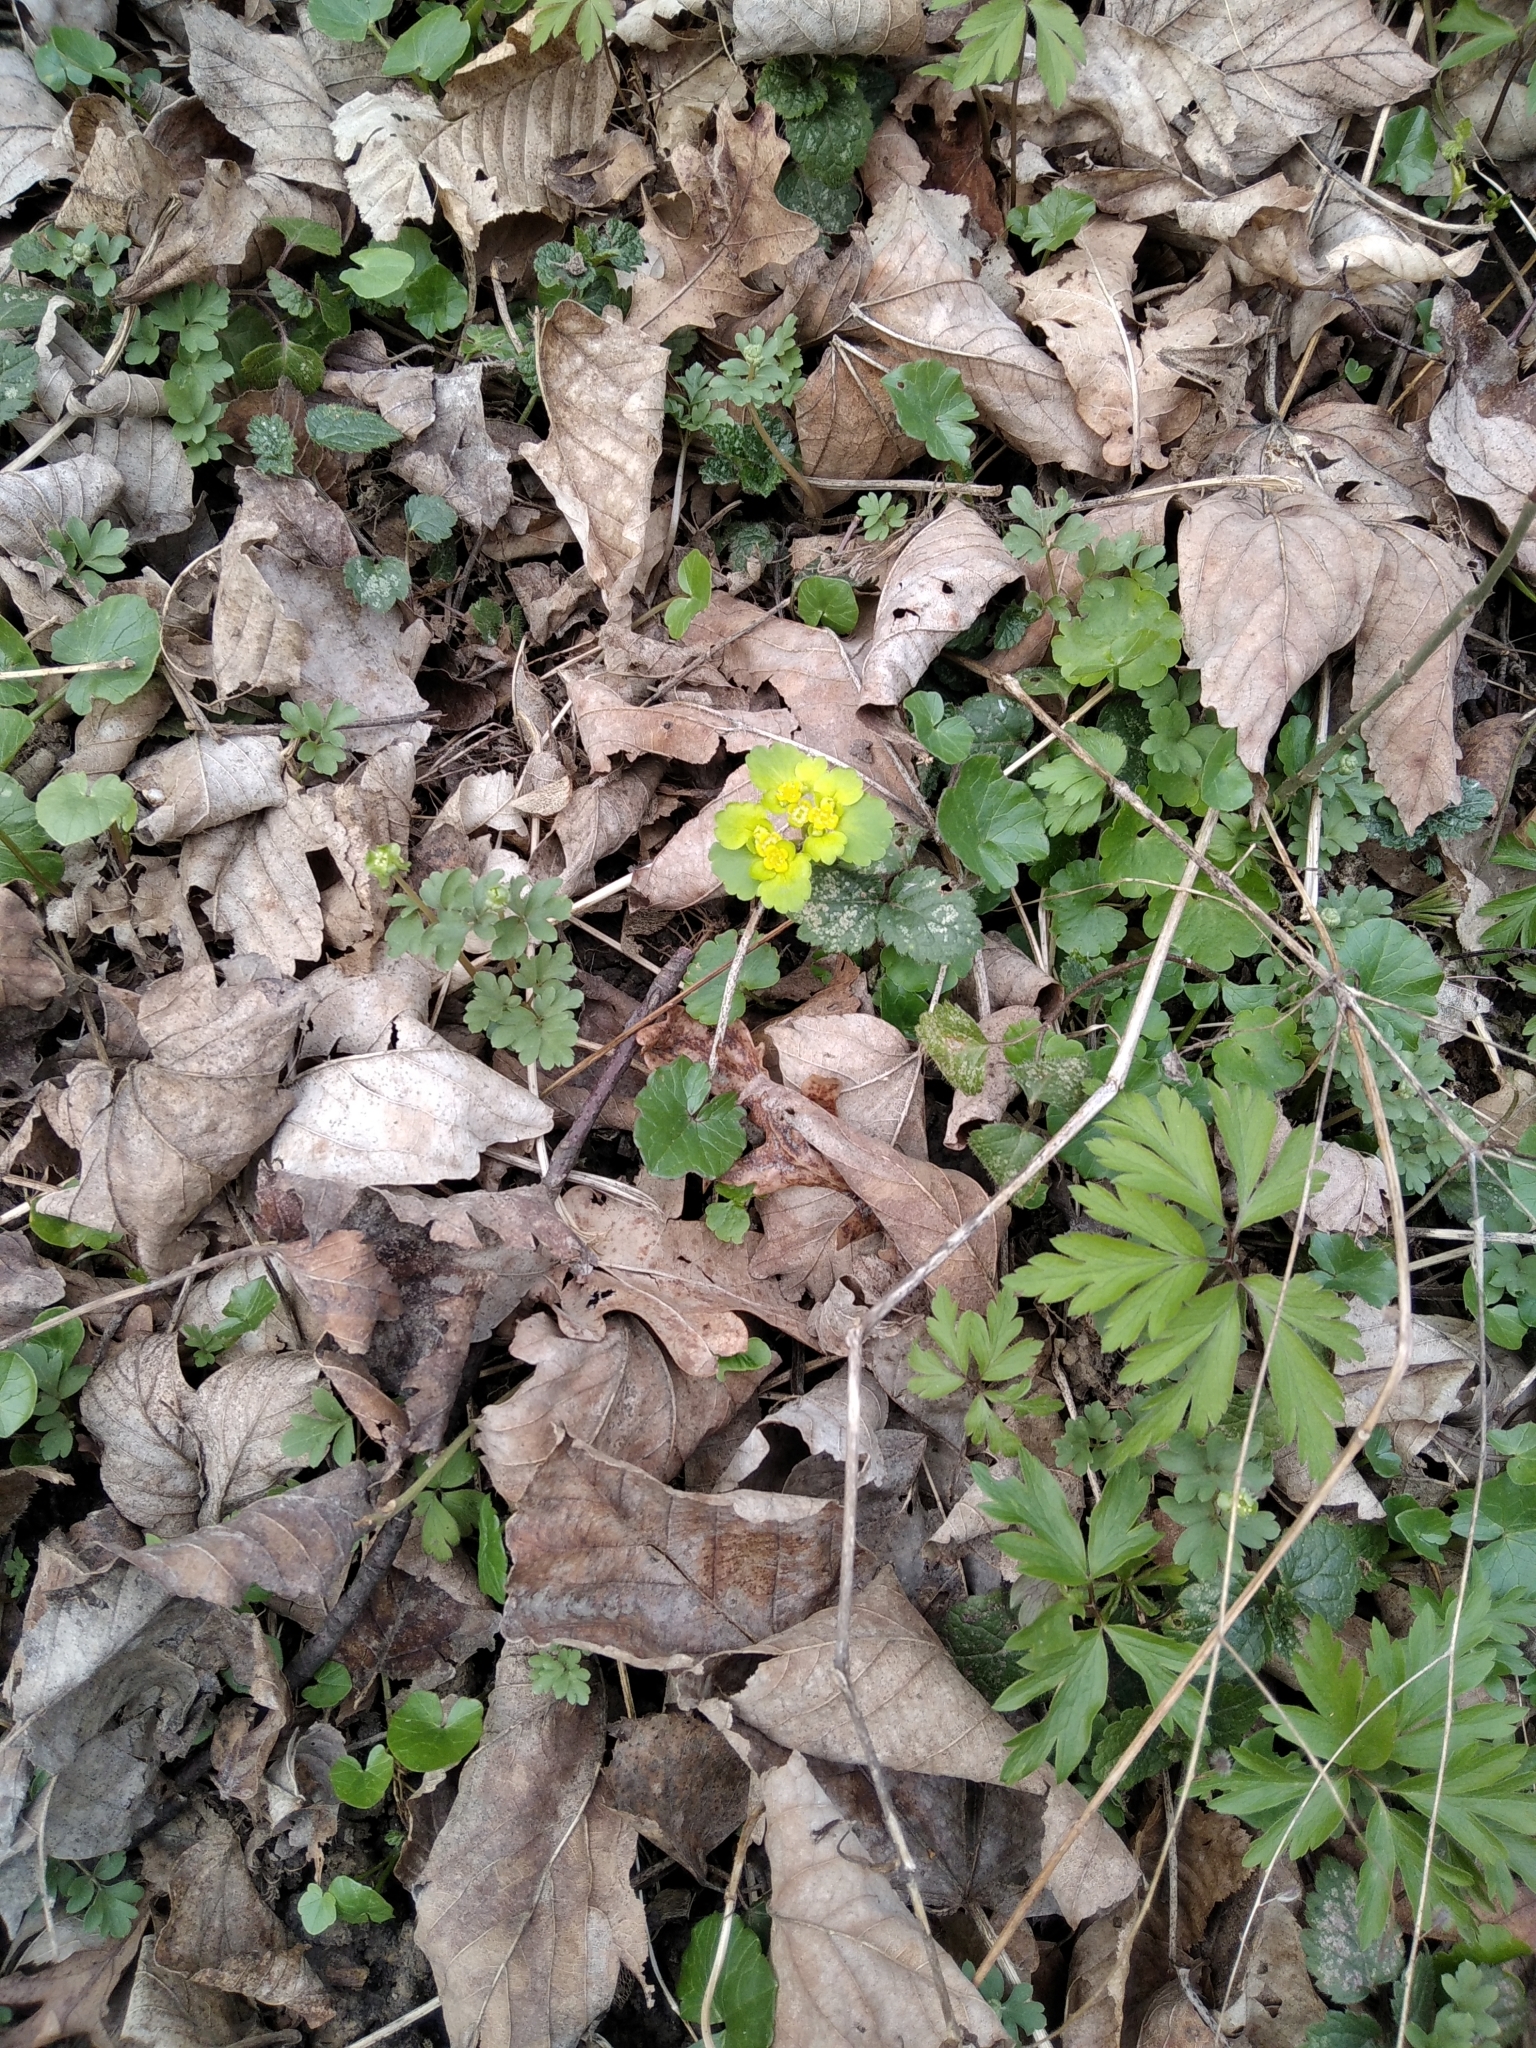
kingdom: Plantae
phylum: Tracheophyta
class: Magnoliopsida
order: Saxifragales
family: Saxifragaceae
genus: Chrysosplenium
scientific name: Chrysosplenium alternifolium
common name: Alternate-leaved golden-saxifrage
